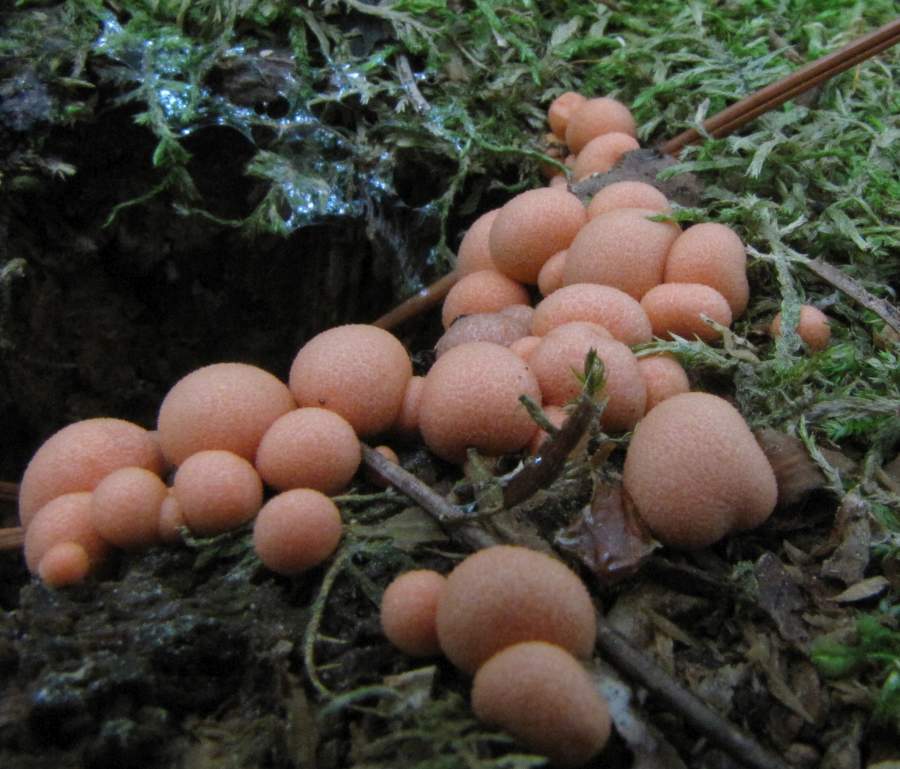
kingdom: Protozoa
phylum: Mycetozoa
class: Myxomycetes
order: Cribrariales
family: Tubiferaceae
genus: Lycogala
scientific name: Lycogala epidendrum
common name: Wolf's milk
